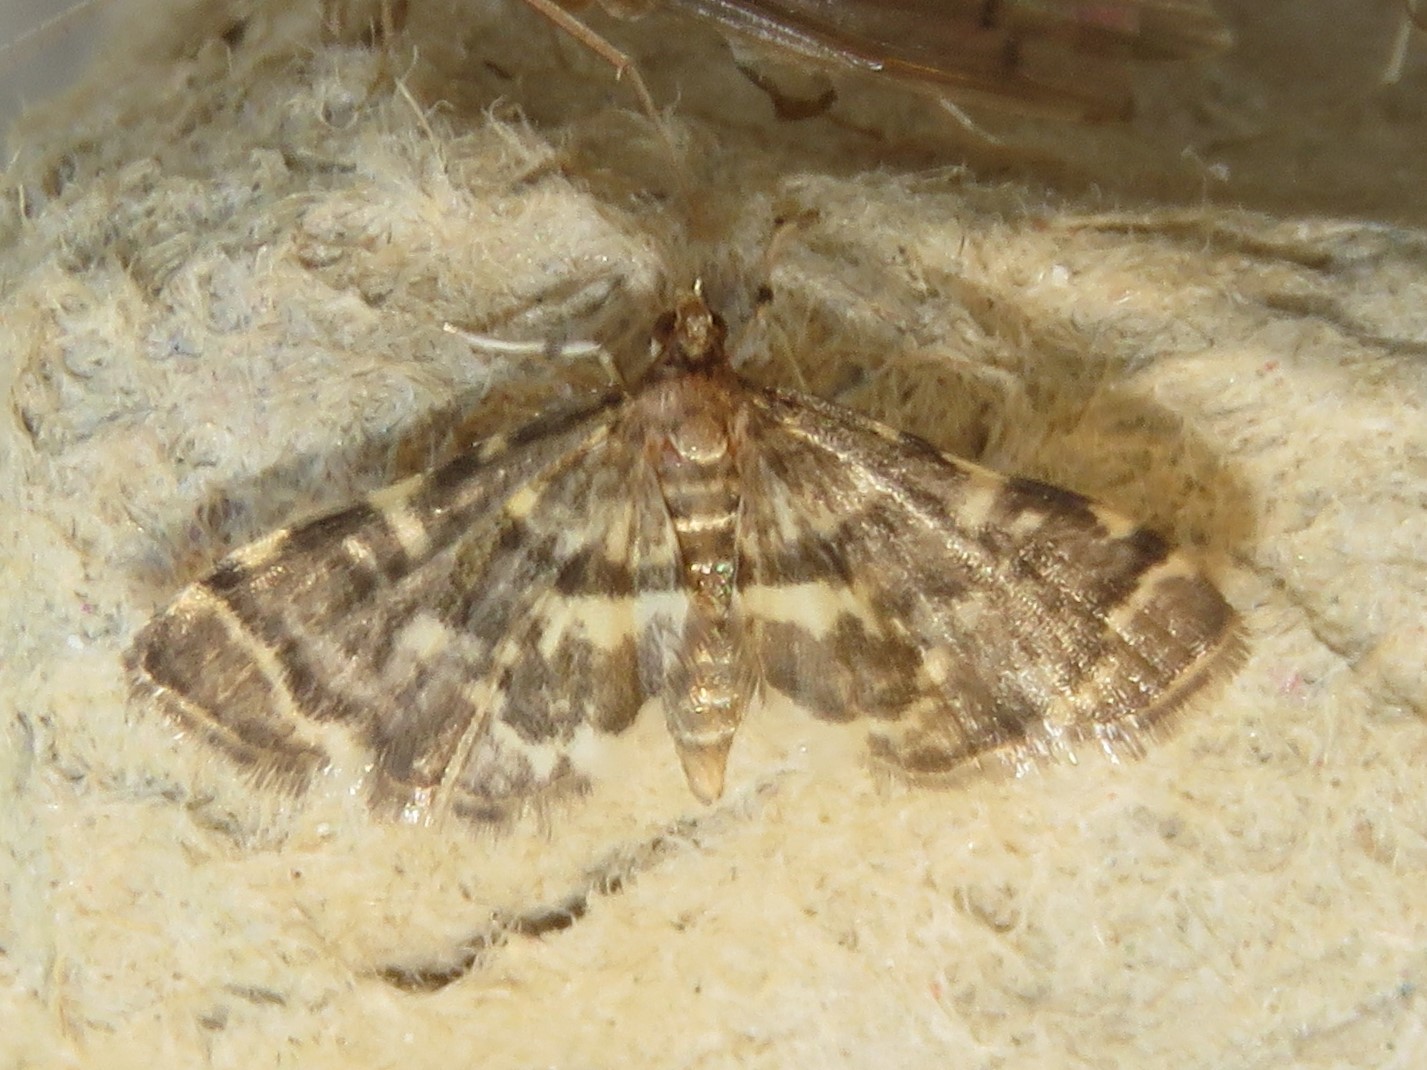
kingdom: Animalia
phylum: Arthropoda
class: Insecta
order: Lepidoptera
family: Crambidae
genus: Anageshna
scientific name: Anageshna primordialis
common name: Yellow-spotted webworm moth
